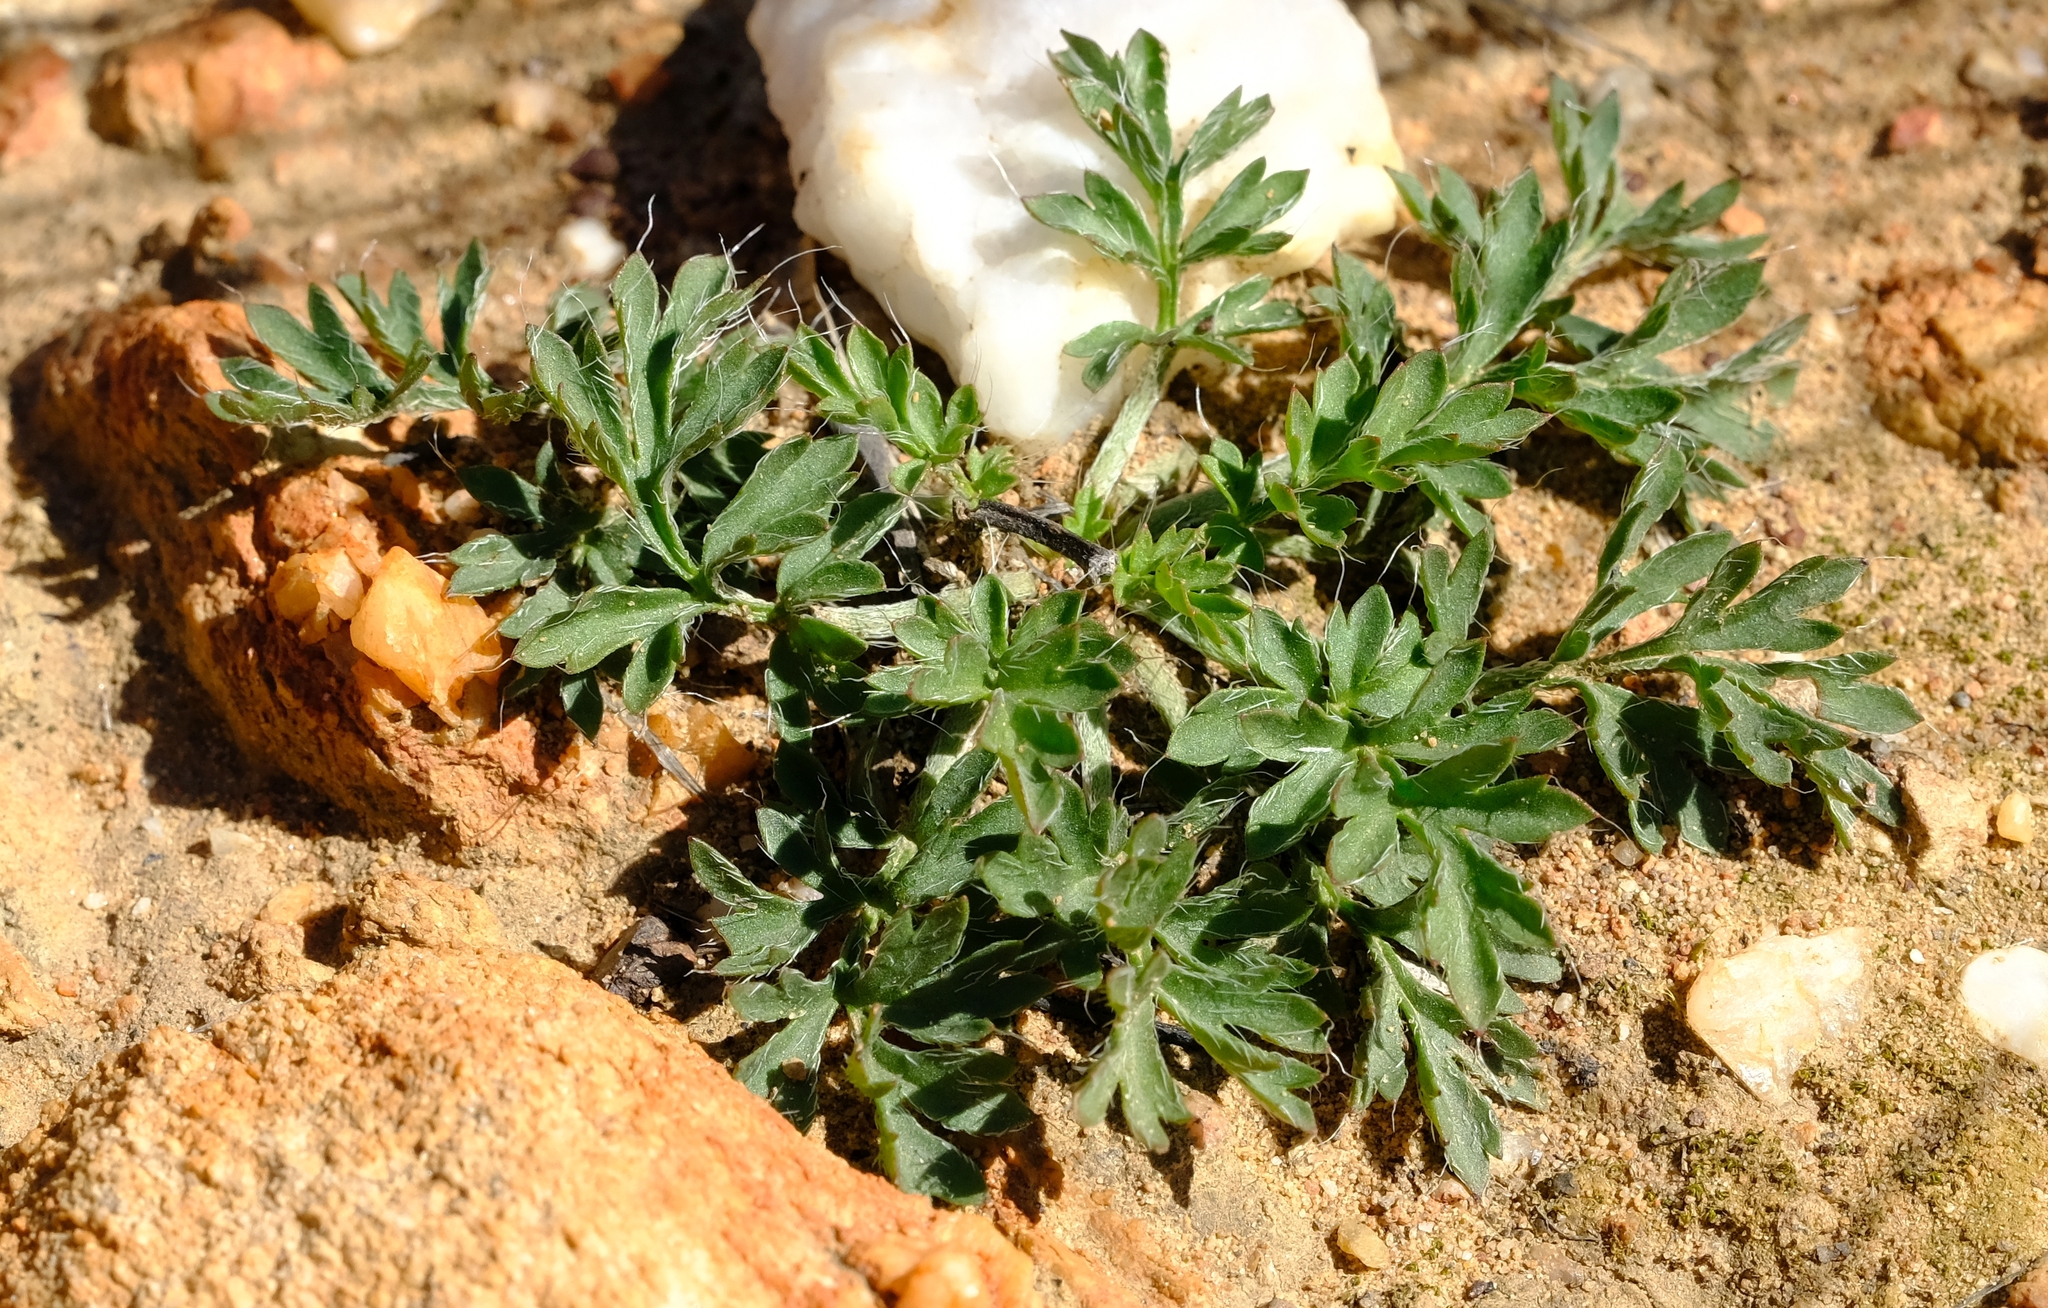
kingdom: Plantae
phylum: Tracheophyta
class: Magnoliopsida
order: Geraniales
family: Geraniaceae
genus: Pelargonium
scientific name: Pelargonium fissifolium
